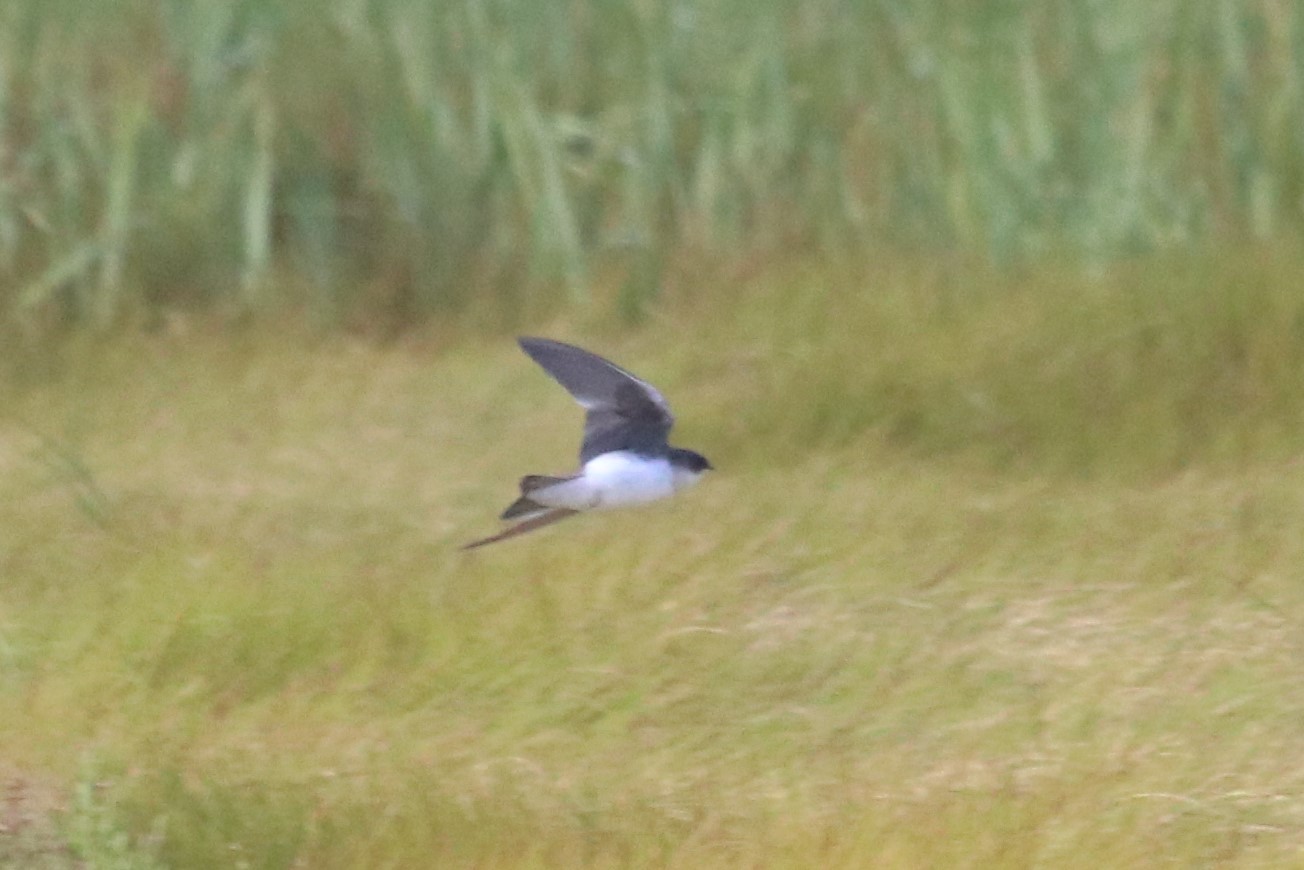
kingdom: Animalia
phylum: Chordata
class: Aves
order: Passeriformes
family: Hirundinidae
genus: Tachycineta
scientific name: Tachycineta bicolor
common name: Tree swallow
